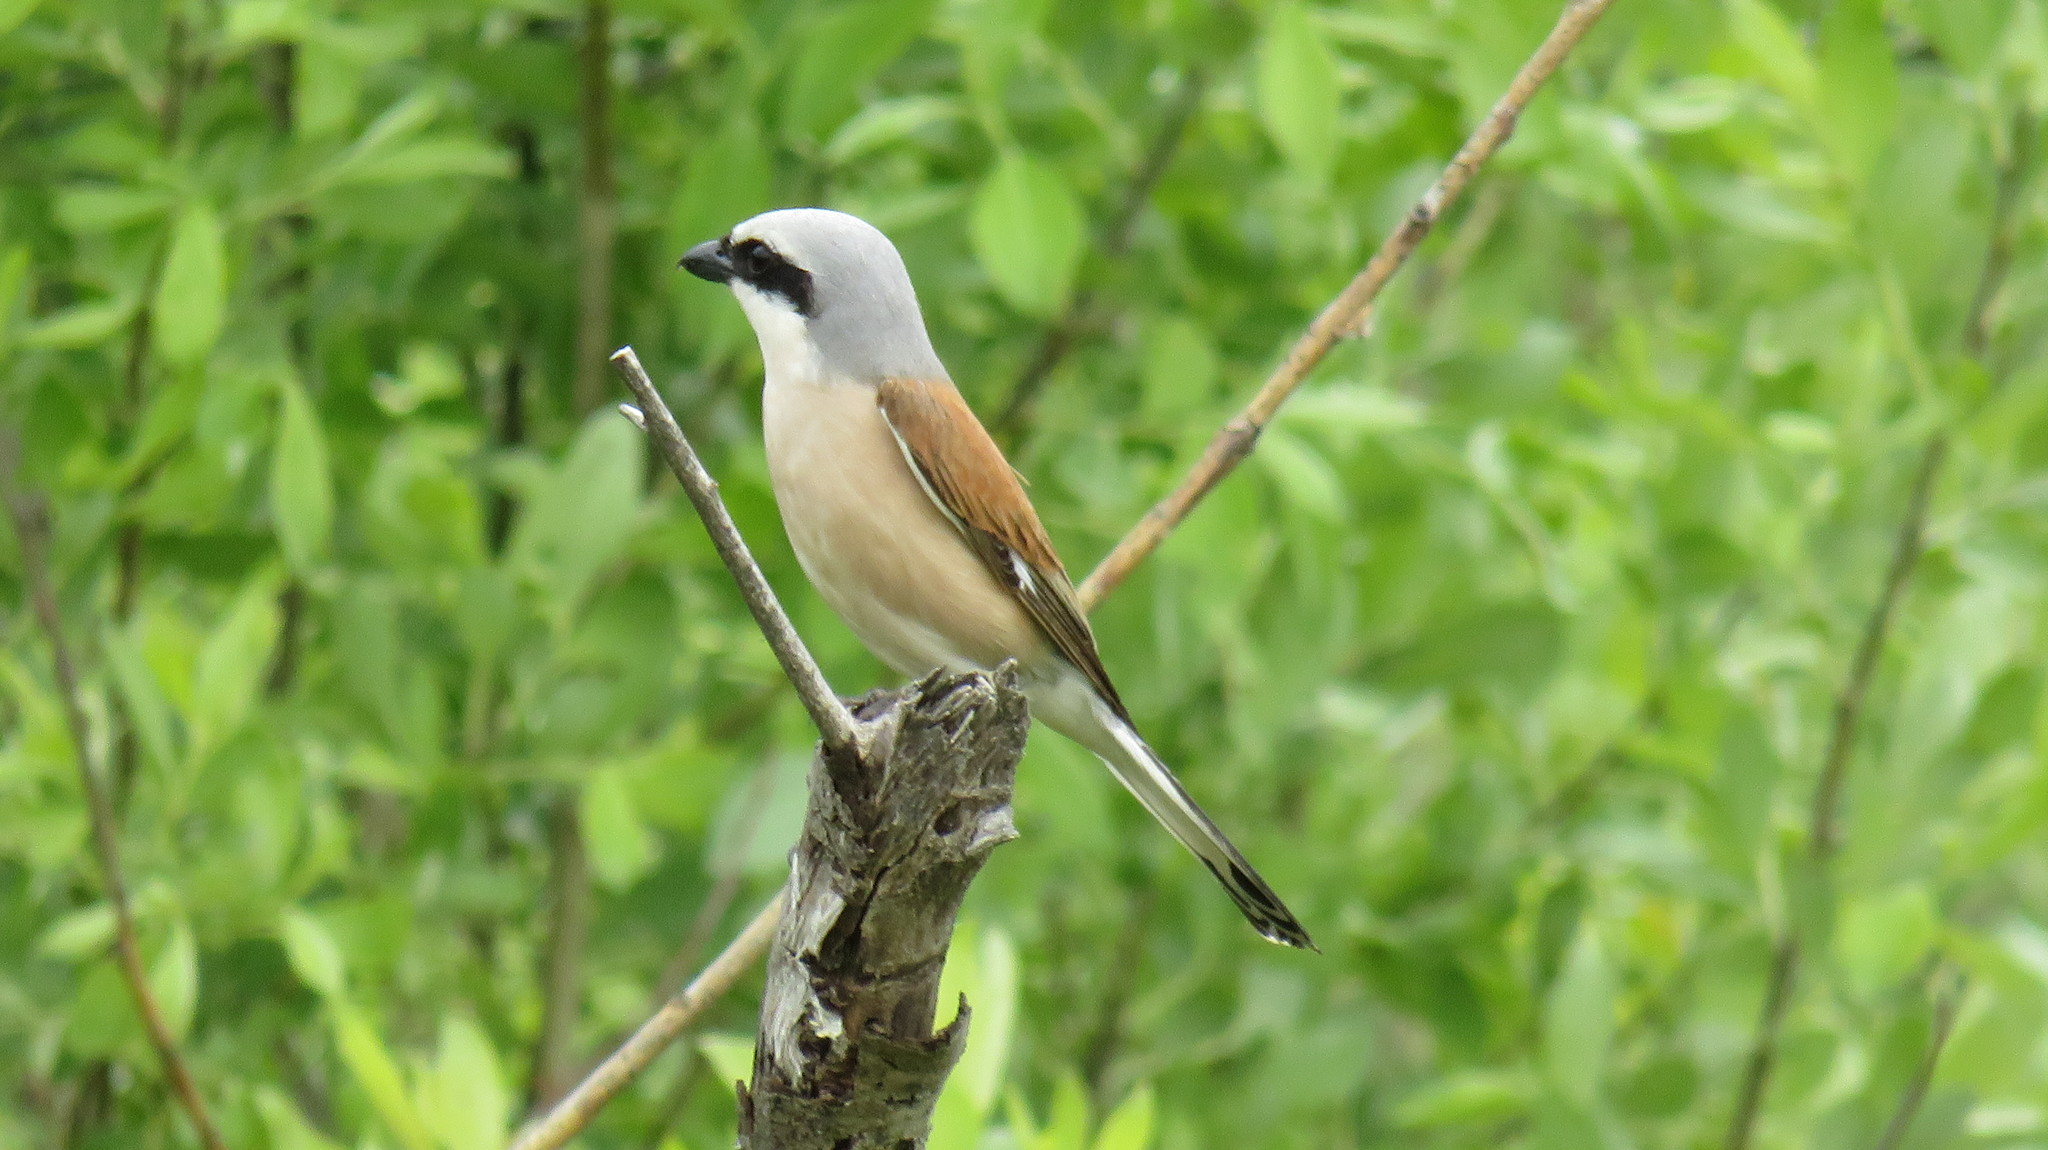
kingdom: Animalia
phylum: Chordata
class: Aves
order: Passeriformes
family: Laniidae
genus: Lanius
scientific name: Lanius collurio
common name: Red-backed shrike
